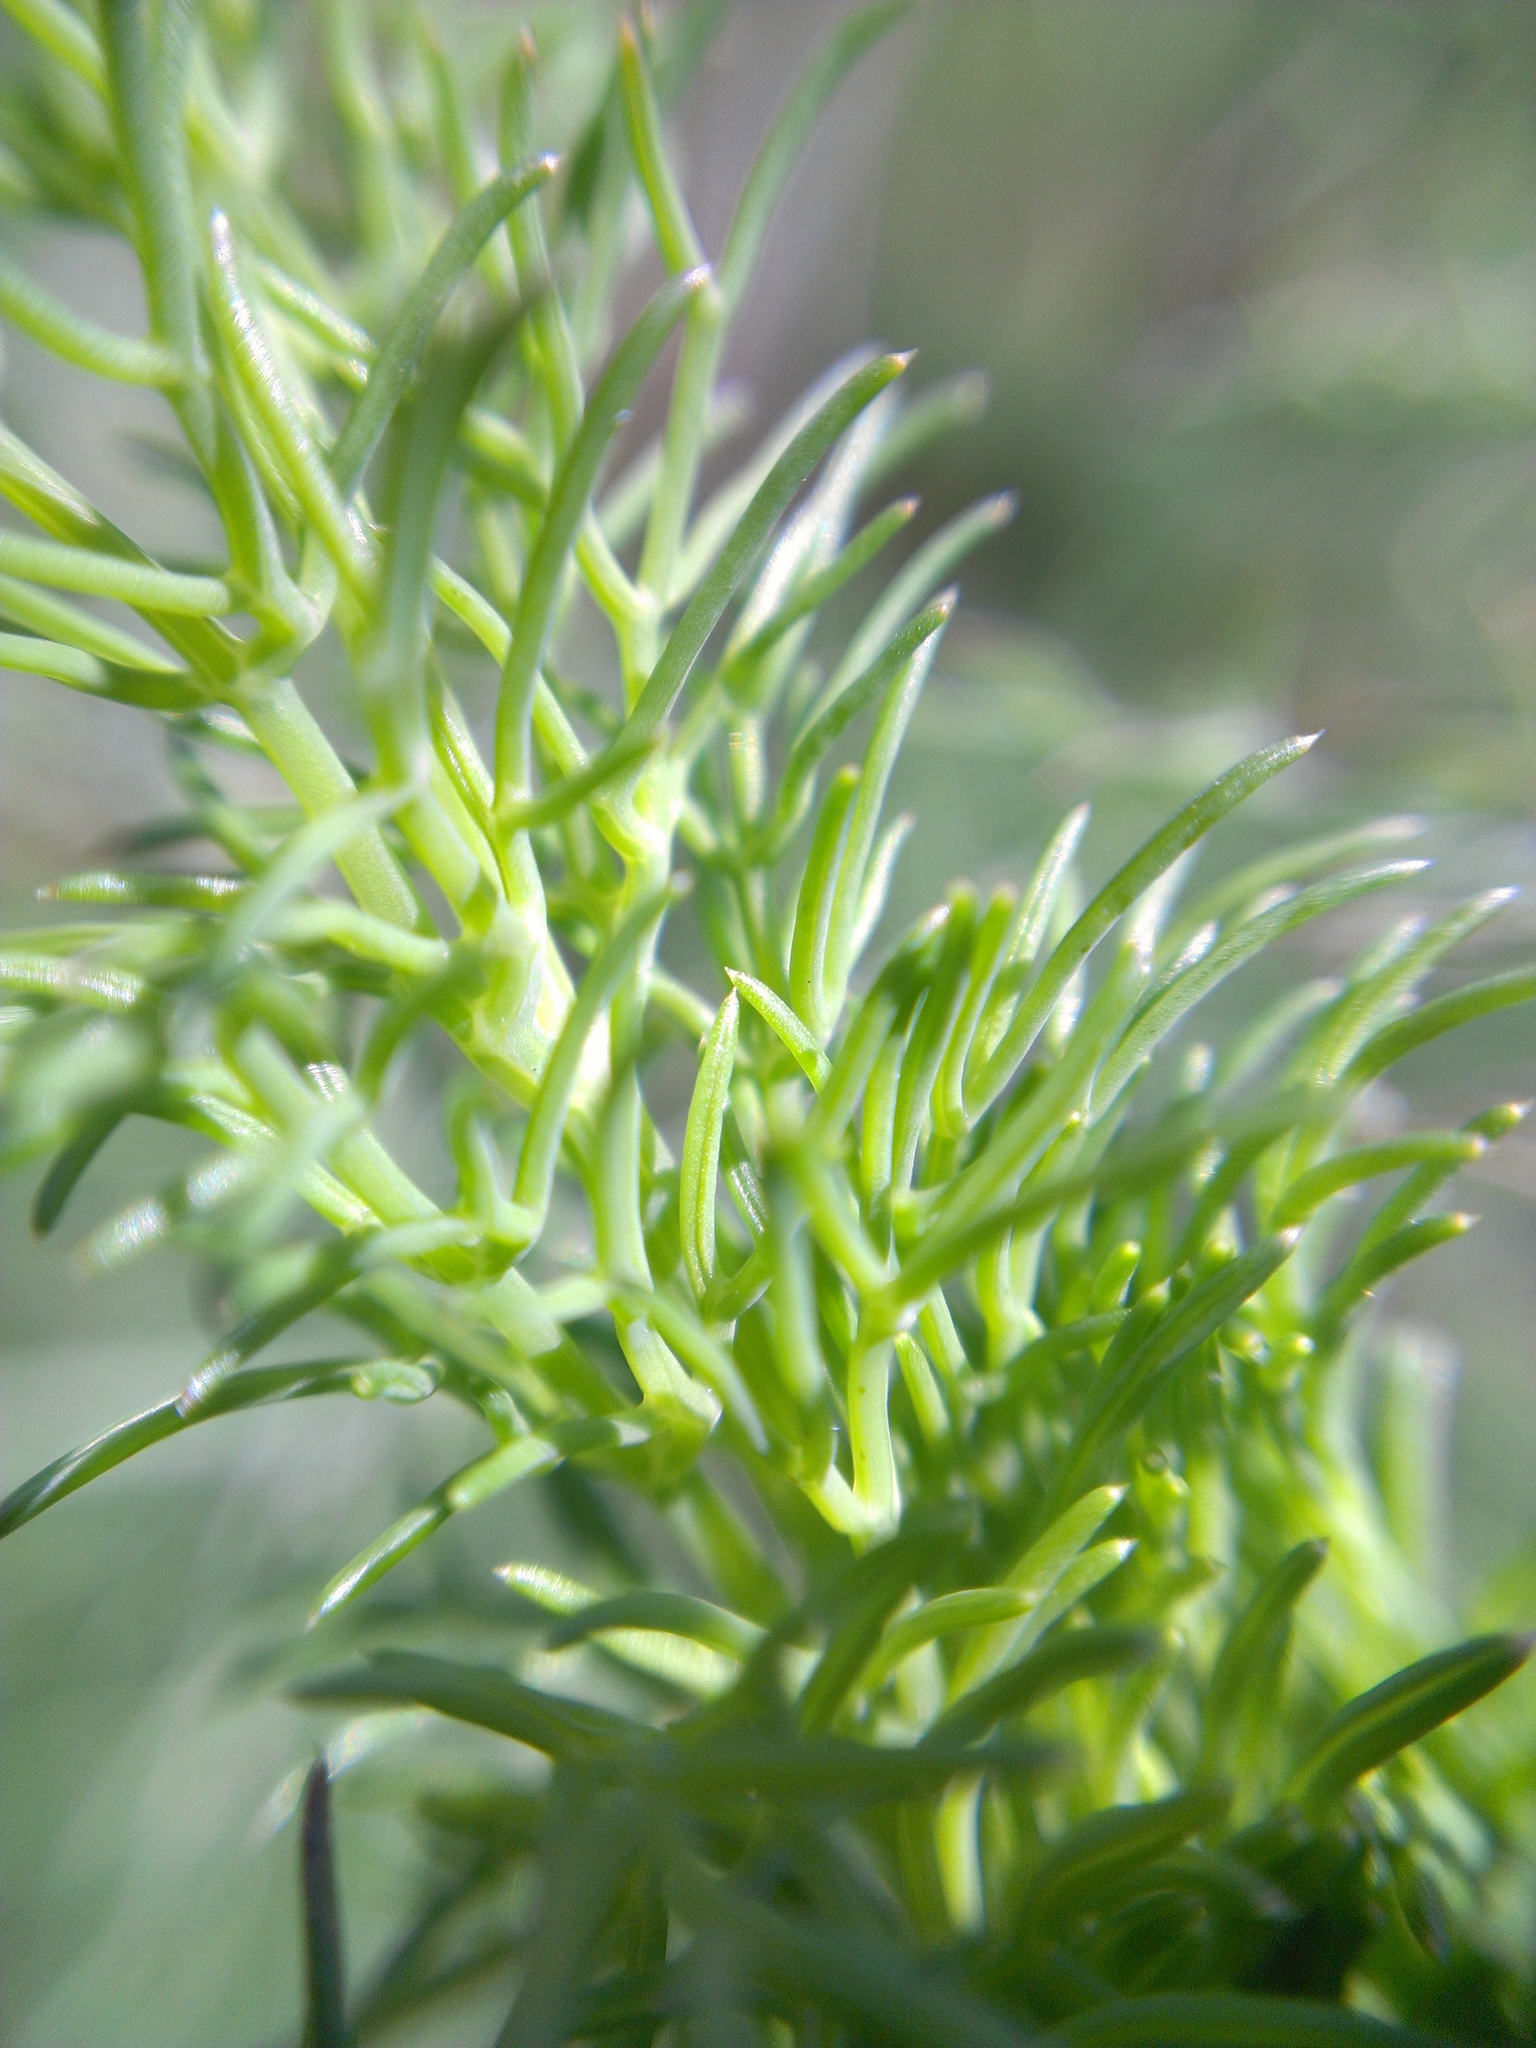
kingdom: Plantae
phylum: Tracheophyta
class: Magnoliopsida
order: Apiales
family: Apiaceae
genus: Foeniculum
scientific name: Foeniculum vulgare
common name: Fennel
